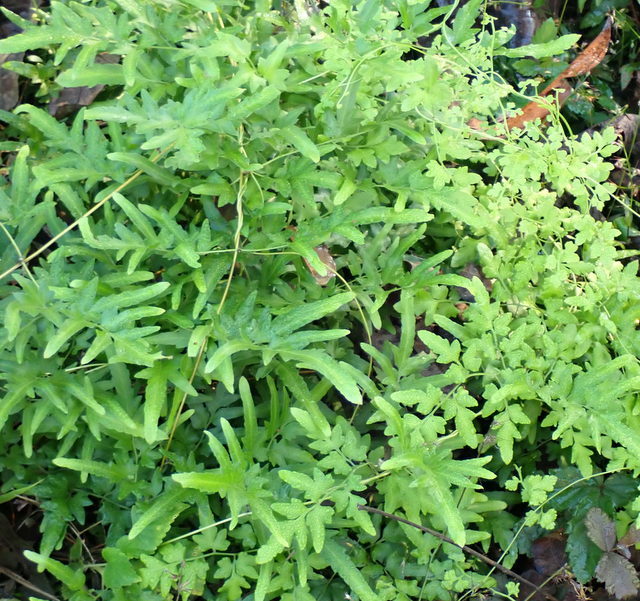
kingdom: Plantae
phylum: Tracheophyta
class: Polypodiopsida
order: Schizaeales
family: Lygodiaceae
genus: Lygodium
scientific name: Lygodium japonicum
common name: Japanese climbing fern
